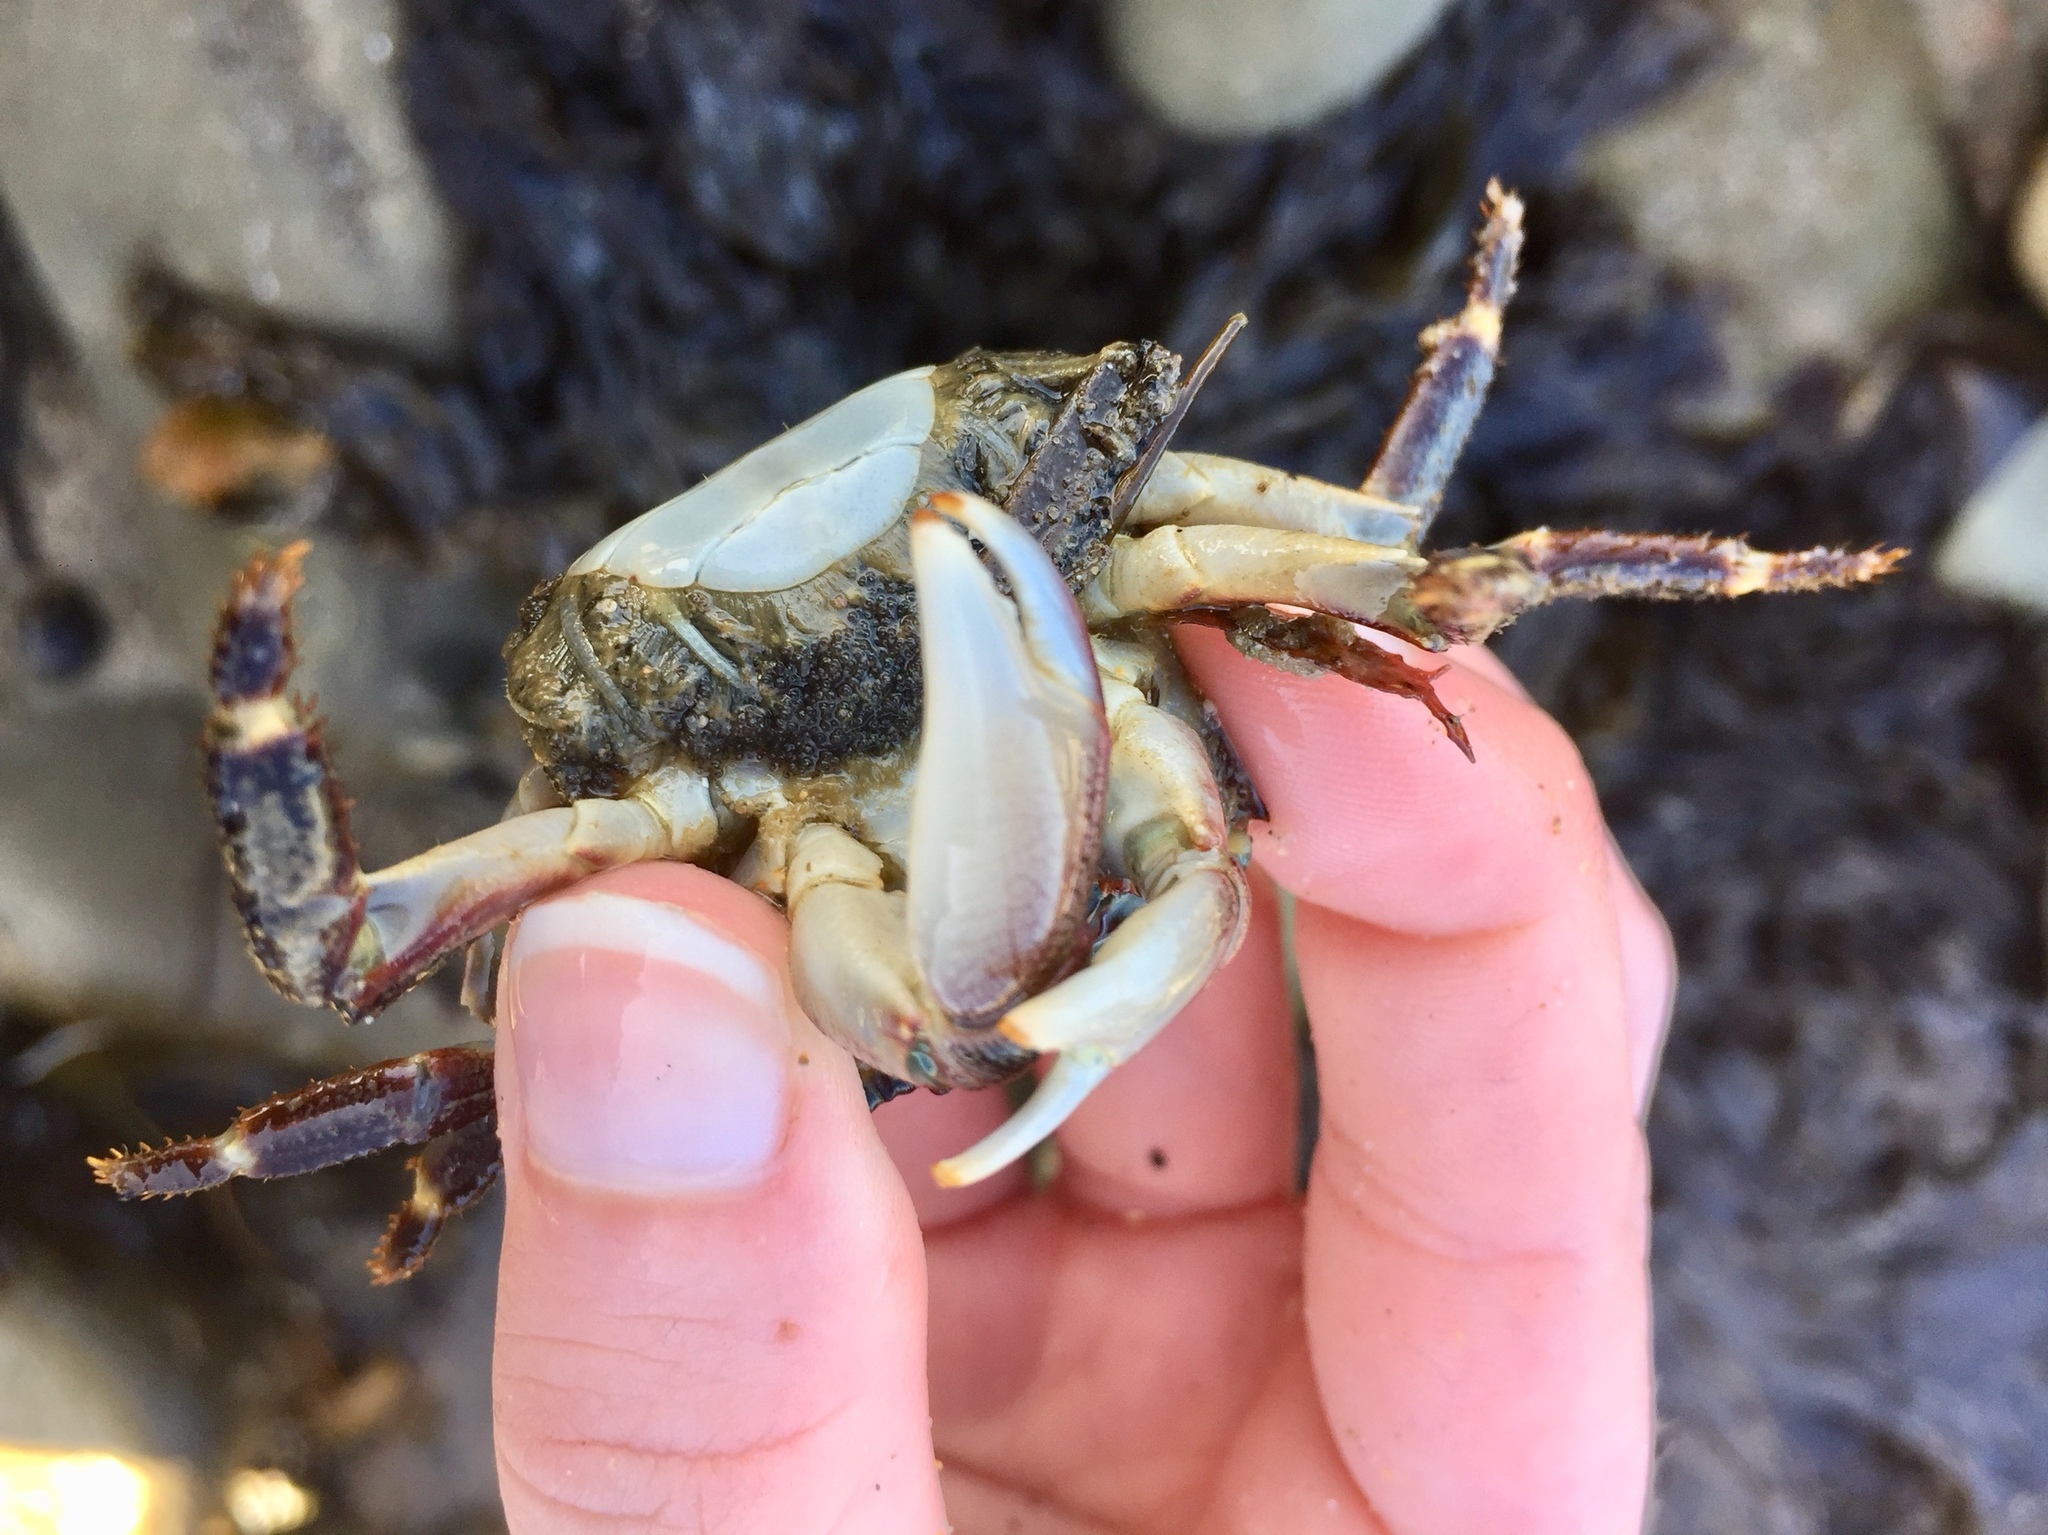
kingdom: Animalia
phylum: Arthropoda
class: Malacostraca
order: Decapoda
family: Grapsidae
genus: Pachygrapsus
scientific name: Pachygrapsus crassipes
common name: Striped shore crab
